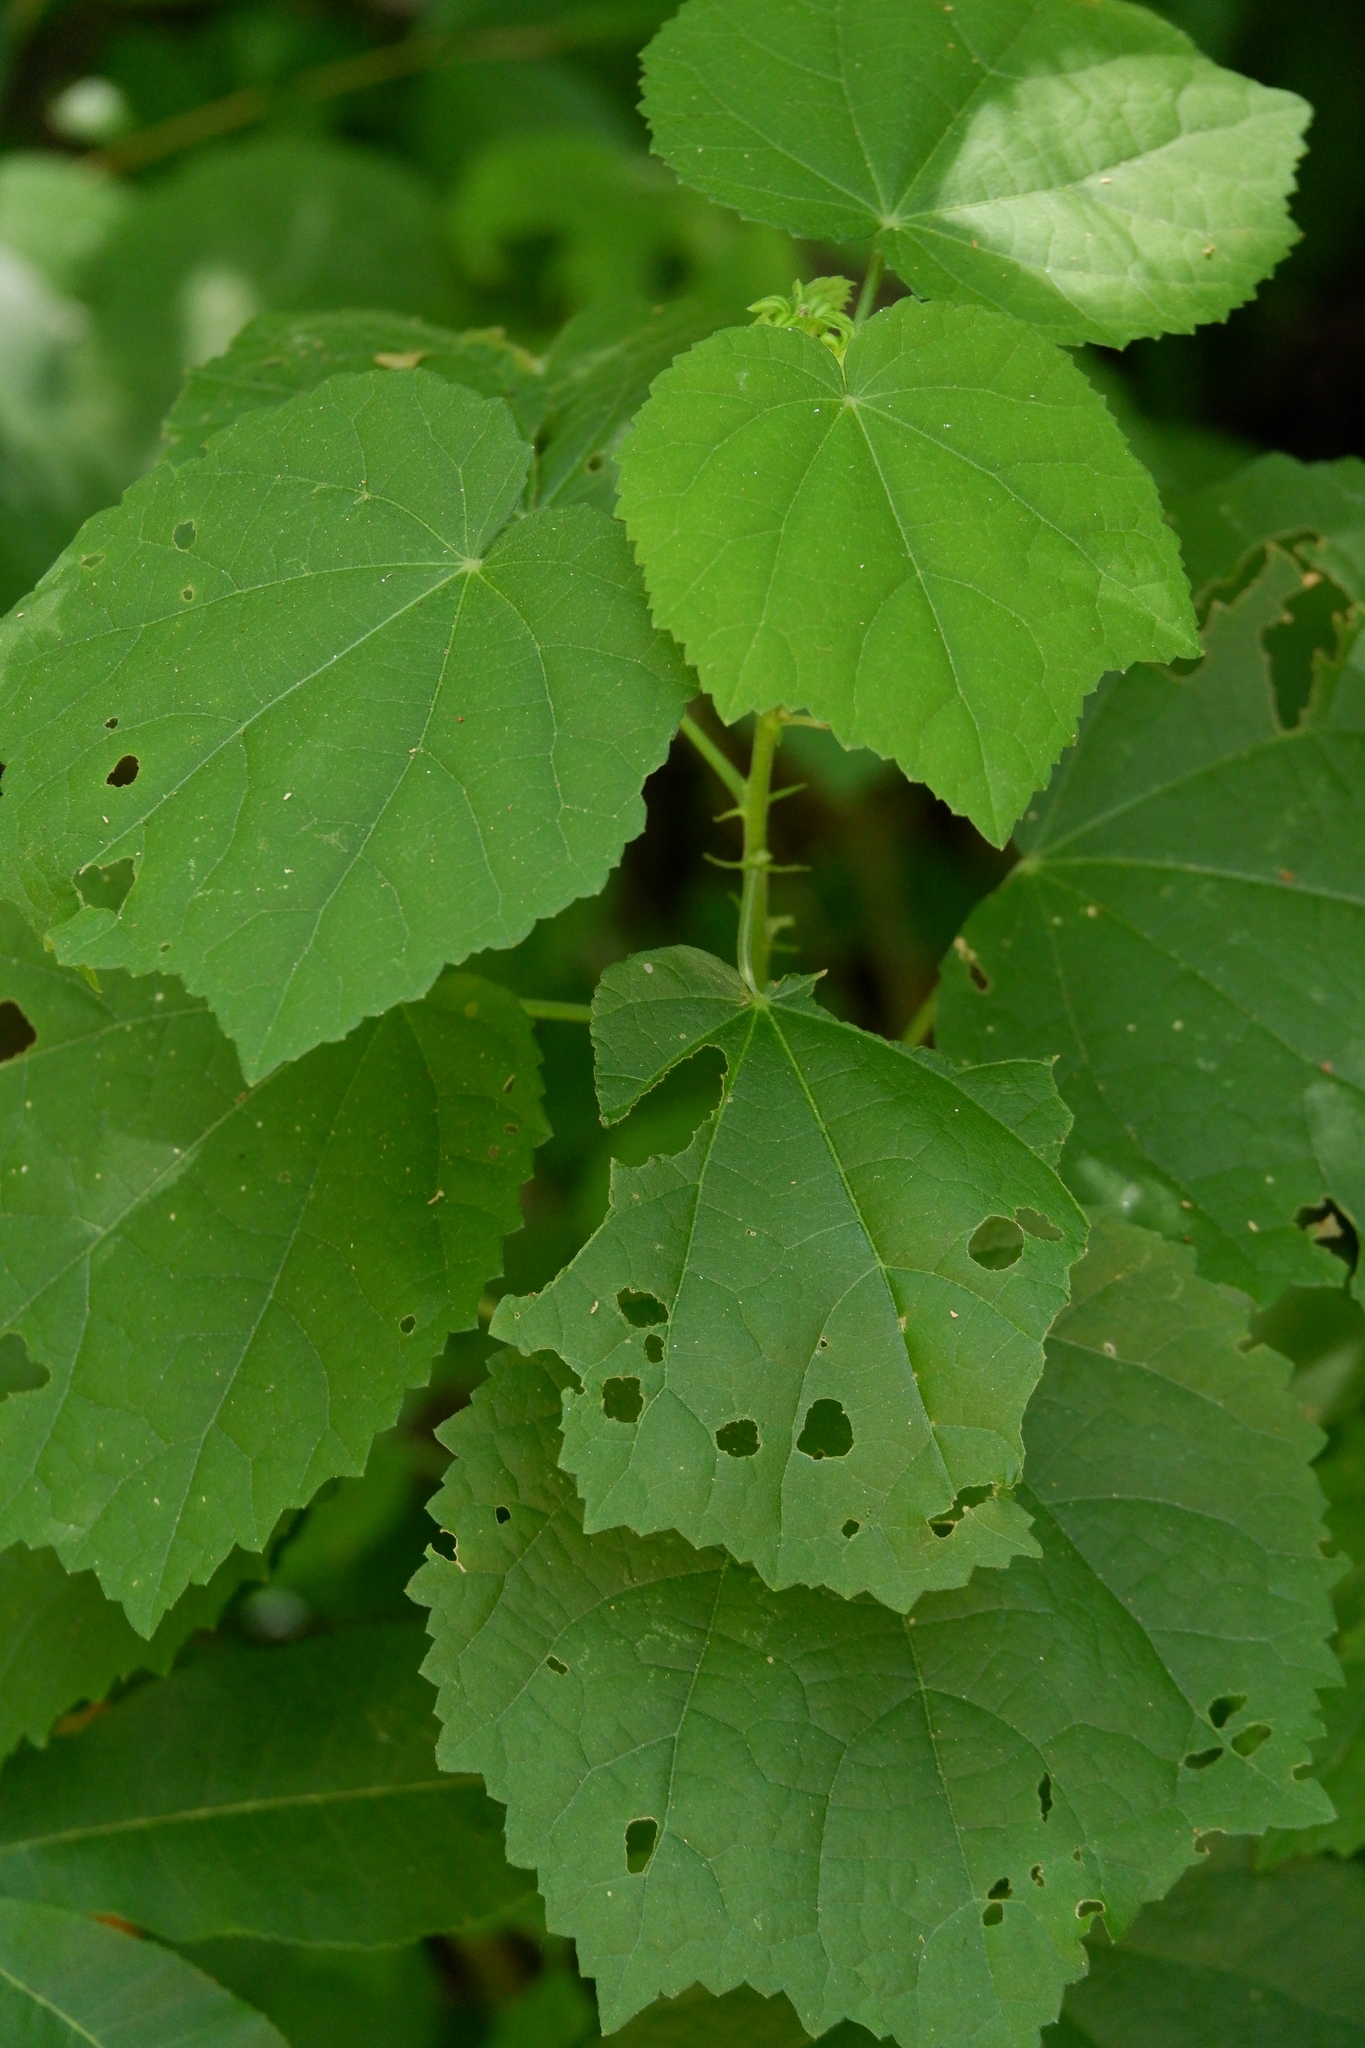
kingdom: Plantae
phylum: Tracheophyta
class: Magnoliopsida
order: Malvales
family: Malvaceae
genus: Malvaviscus
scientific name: Malvaviscus arboreus
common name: Wax mallow
